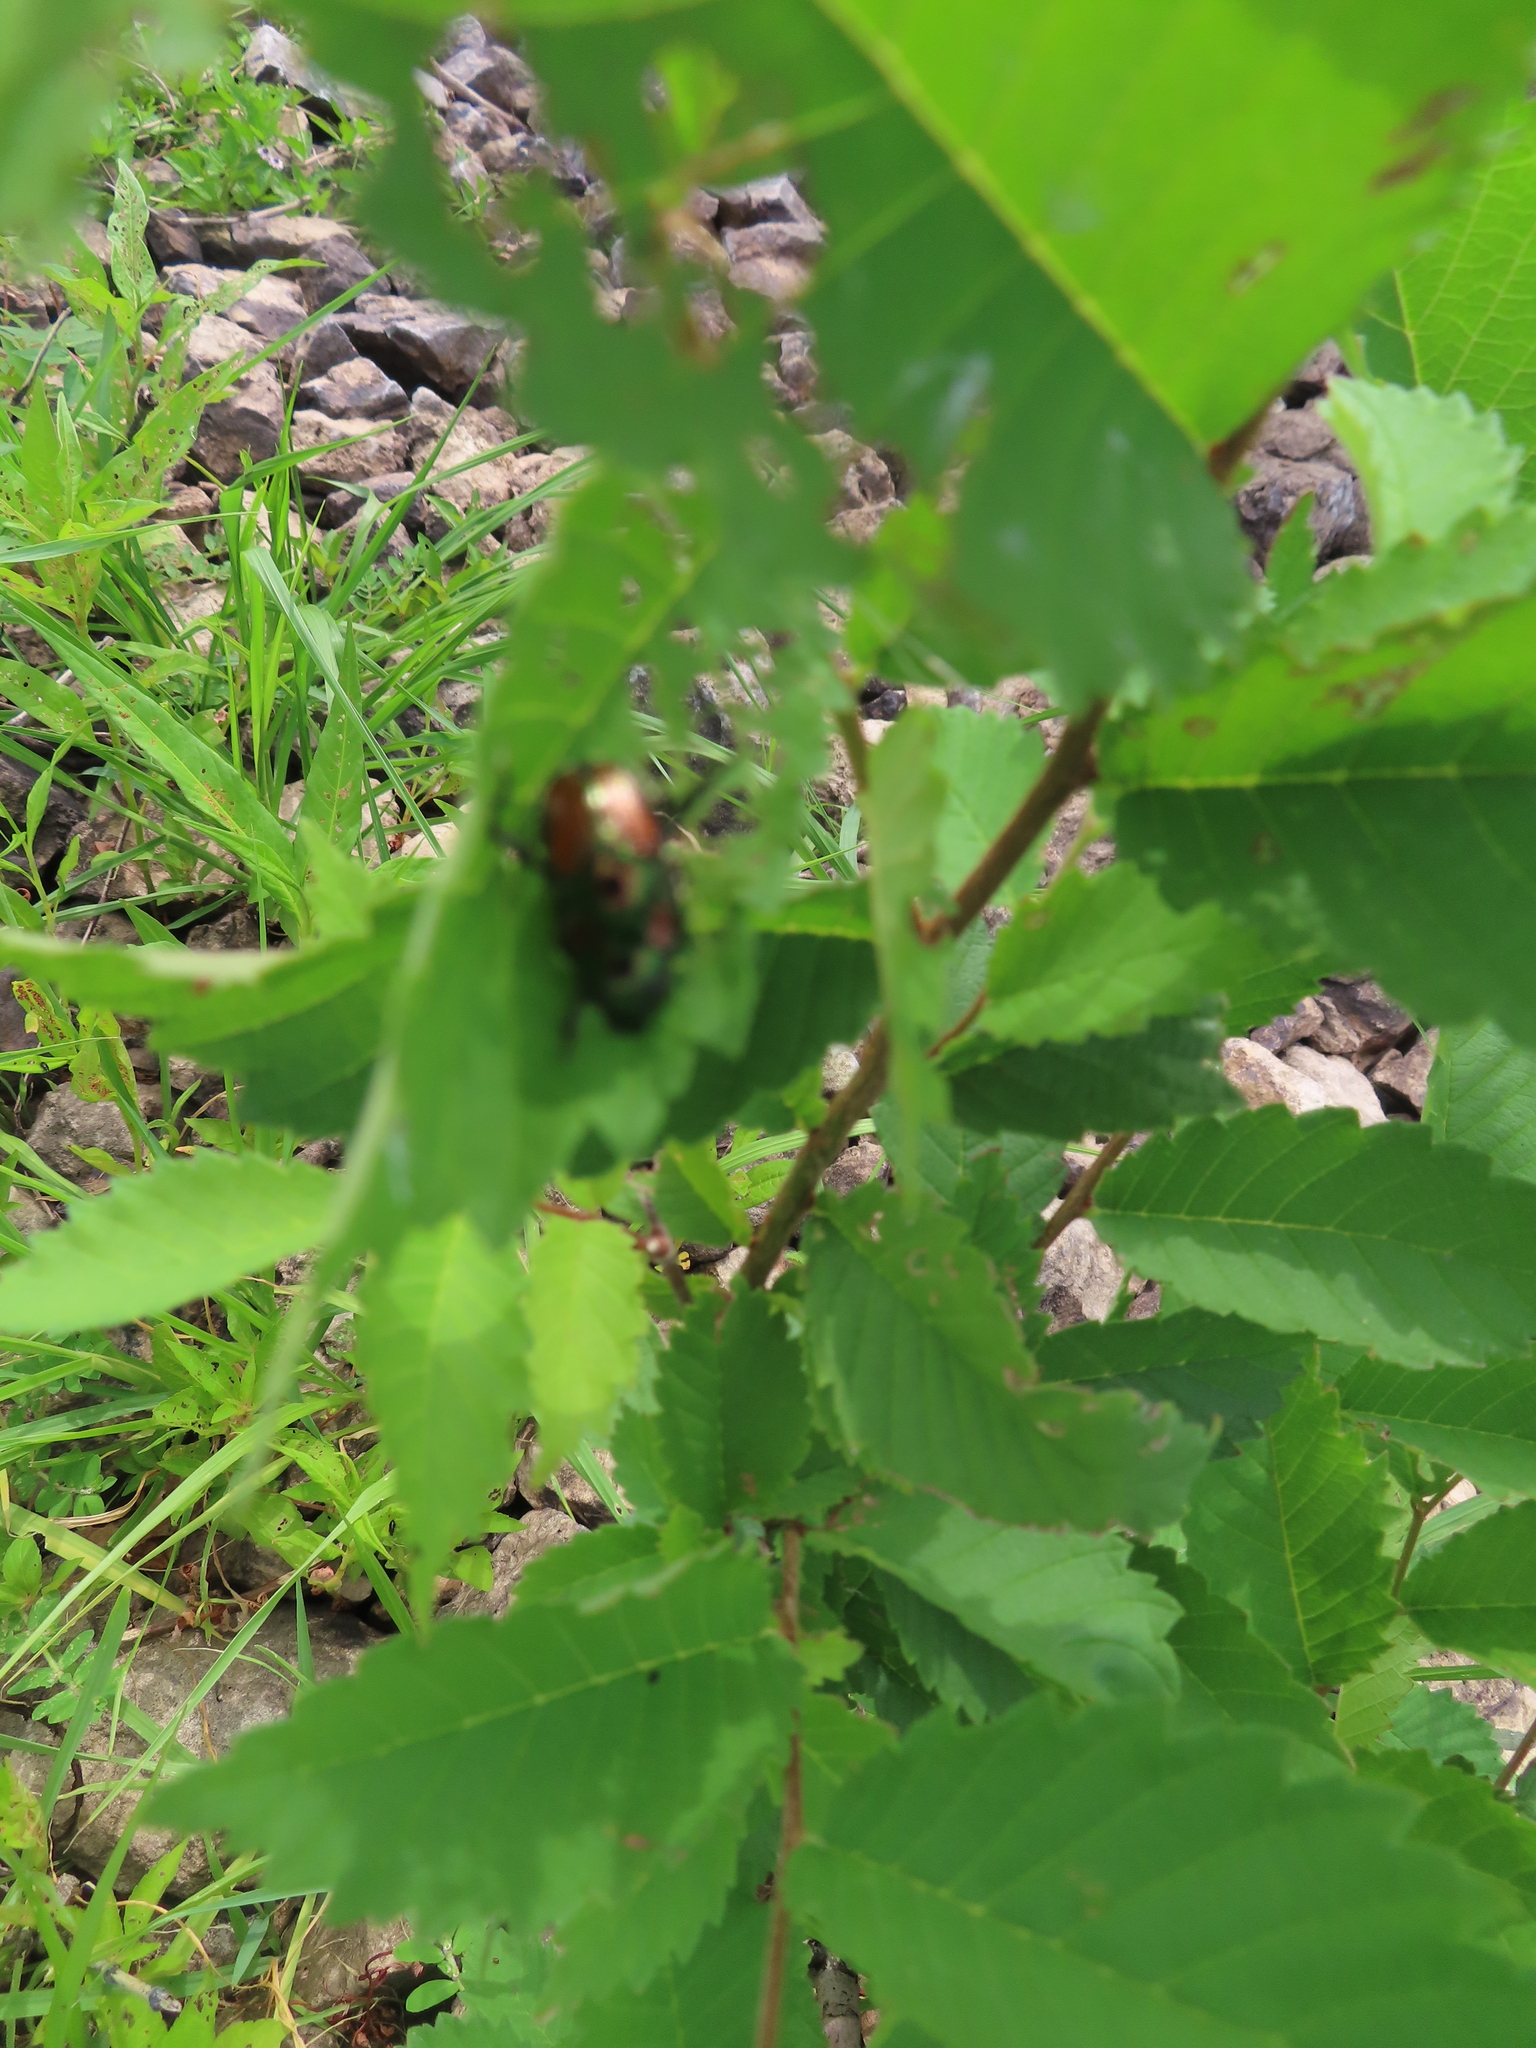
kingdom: Animalia
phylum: Arthropoda
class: Insecta
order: Coleoptera
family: Scarabaeidae
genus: Popillia
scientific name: Popillia japonica
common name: Japanese beetle
